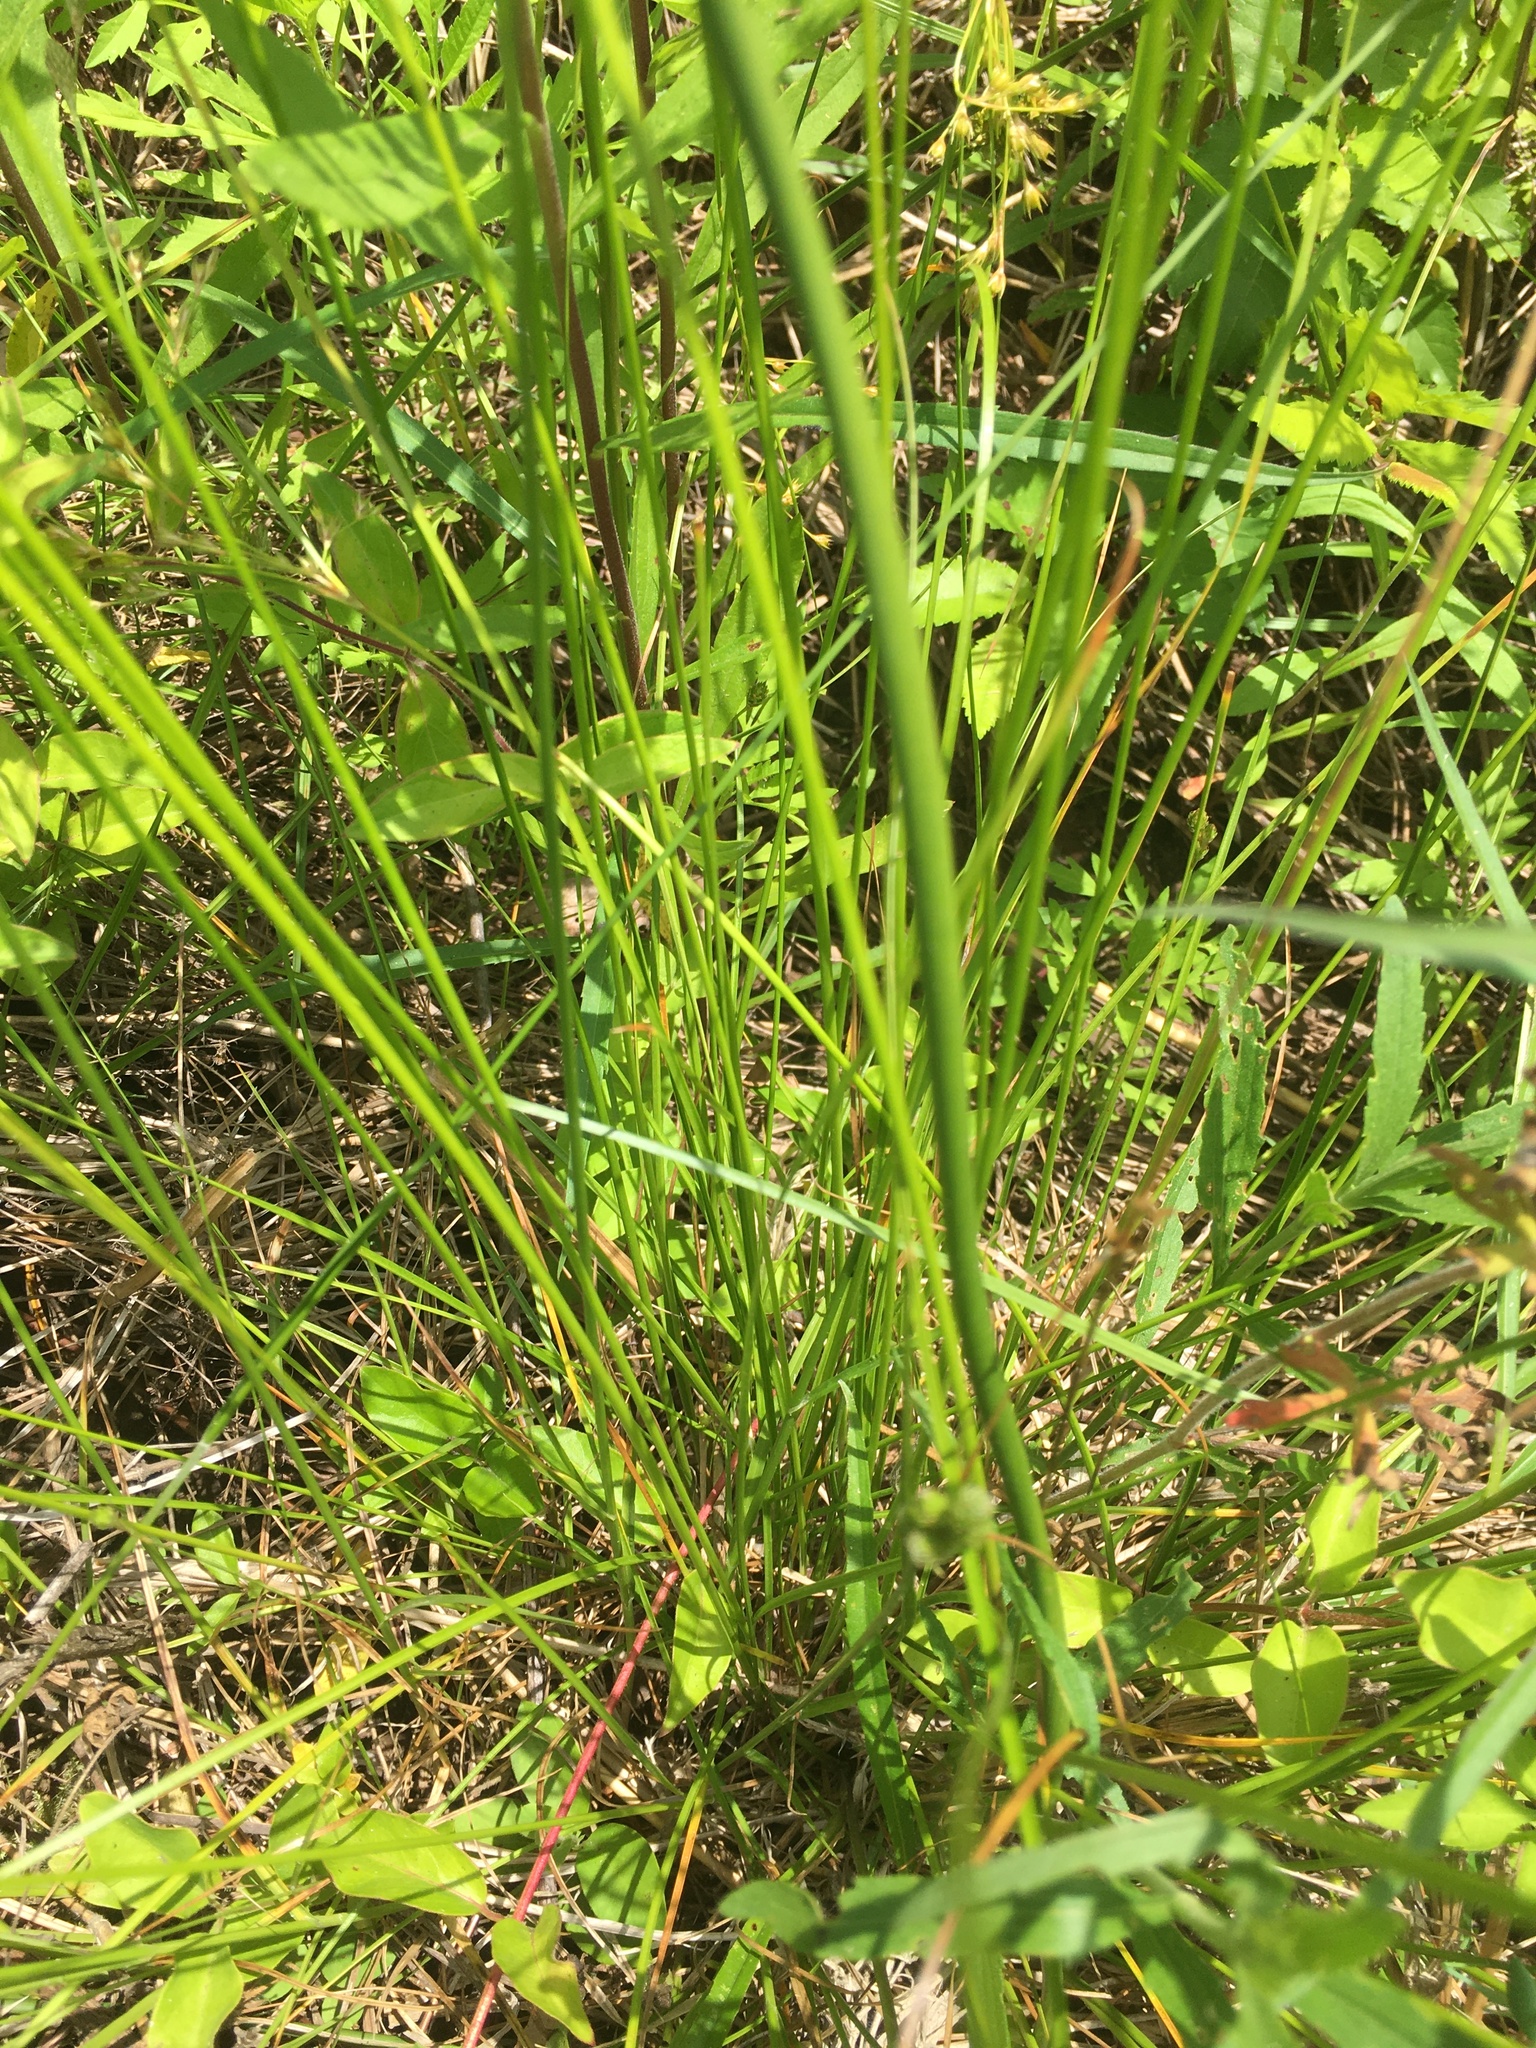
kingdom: Plantae
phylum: Tracheophyta
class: Liliopsida
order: Poales
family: Juncaceae
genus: Juncus
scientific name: Juncus effusus
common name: Soft rush
